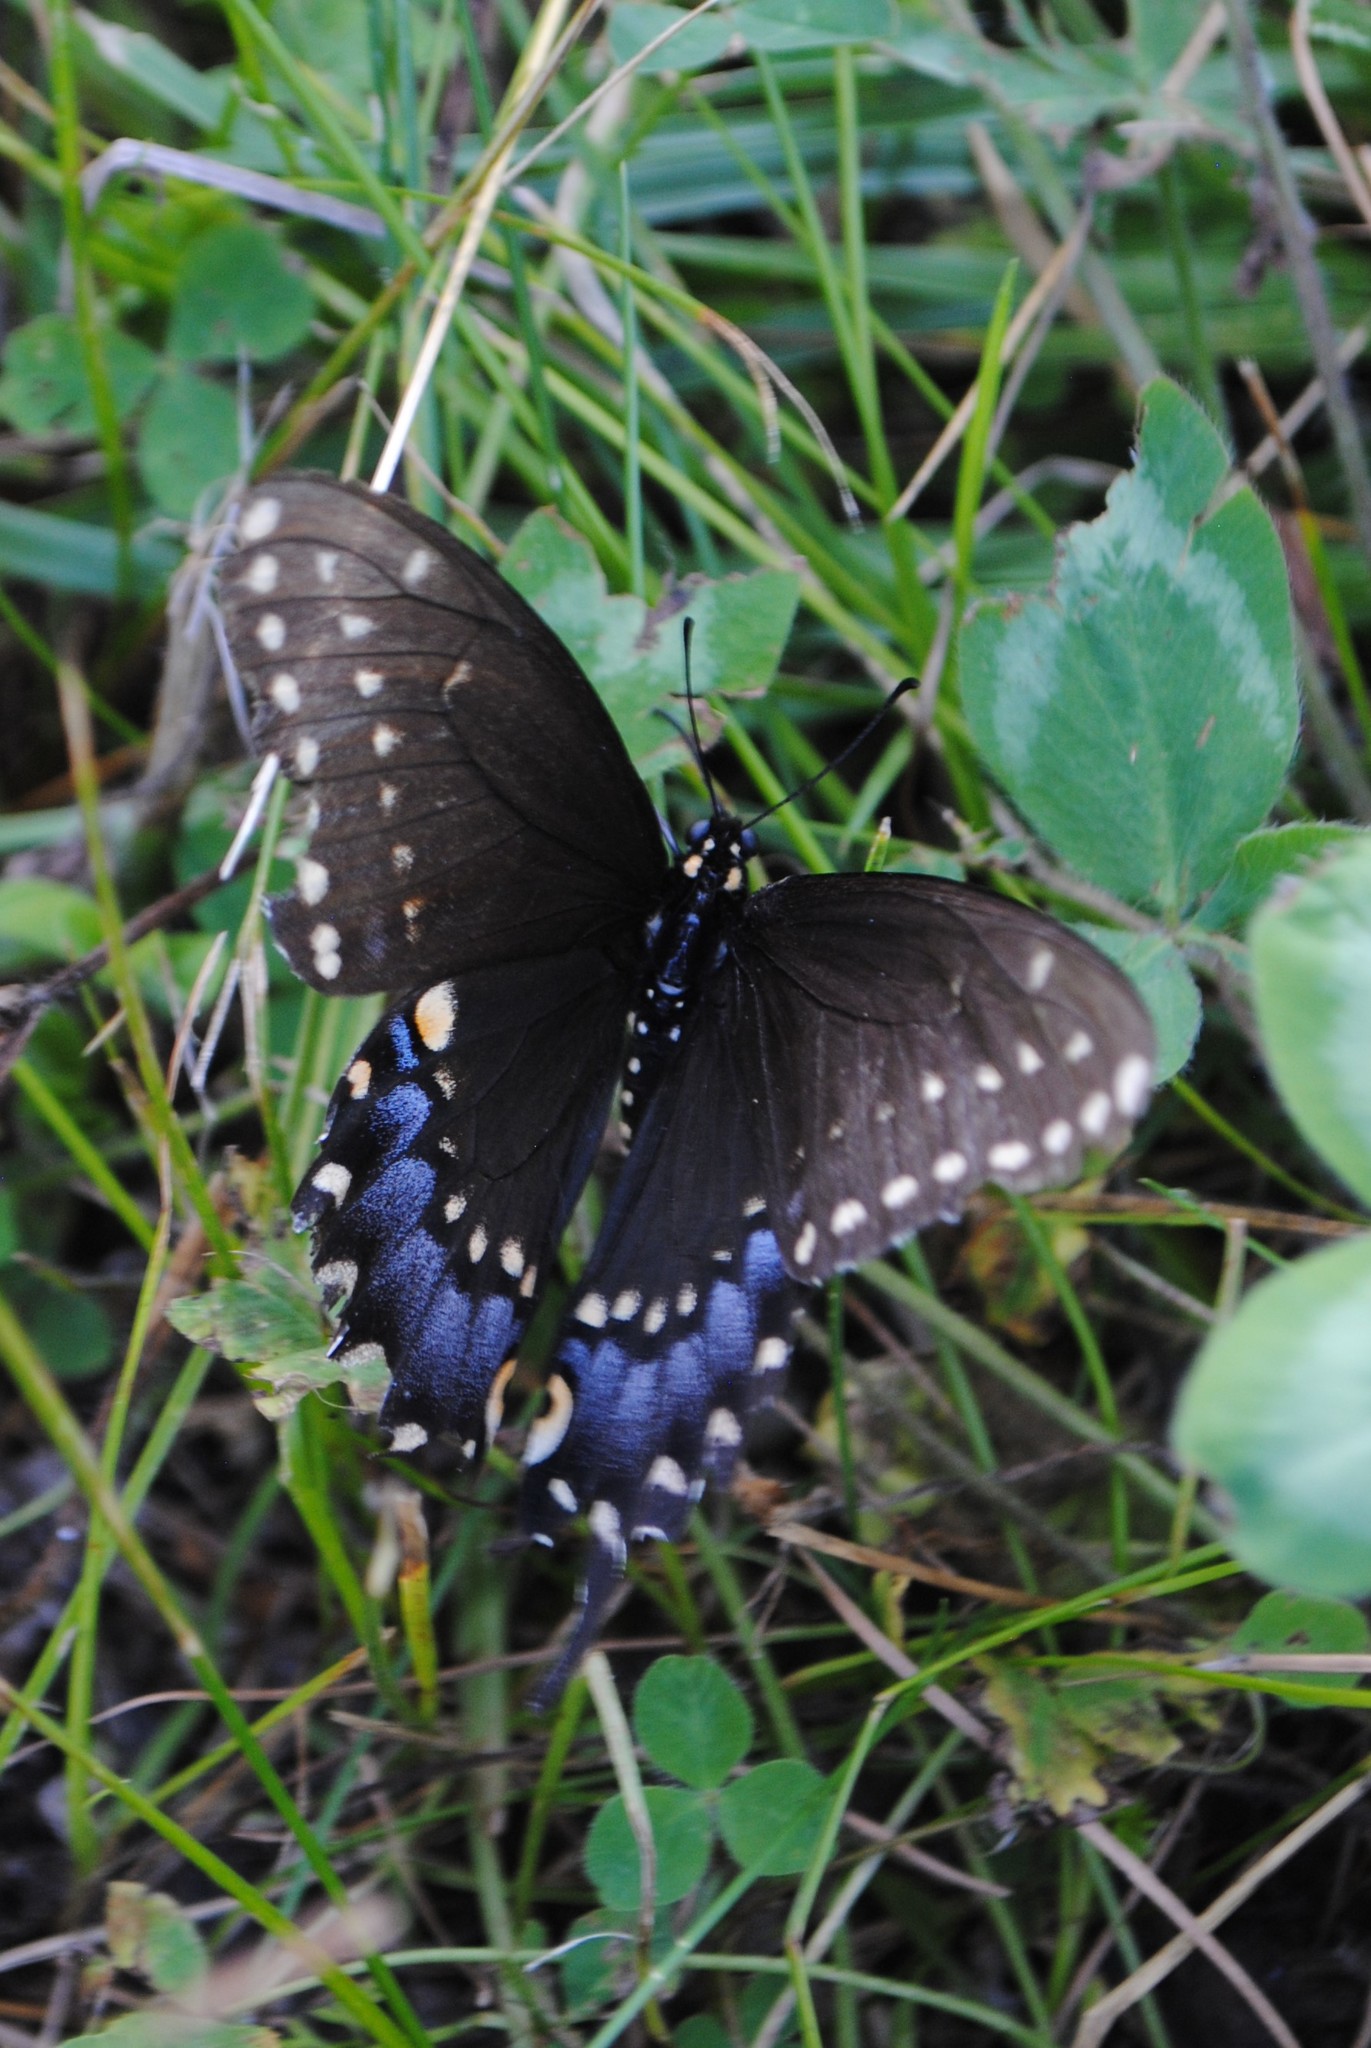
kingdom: Animalia
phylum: Arthropoda
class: Insecta
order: Lepidoptera
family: Papilionidae
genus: Papilio
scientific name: Papilio polyxenes
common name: Black swallowtail
